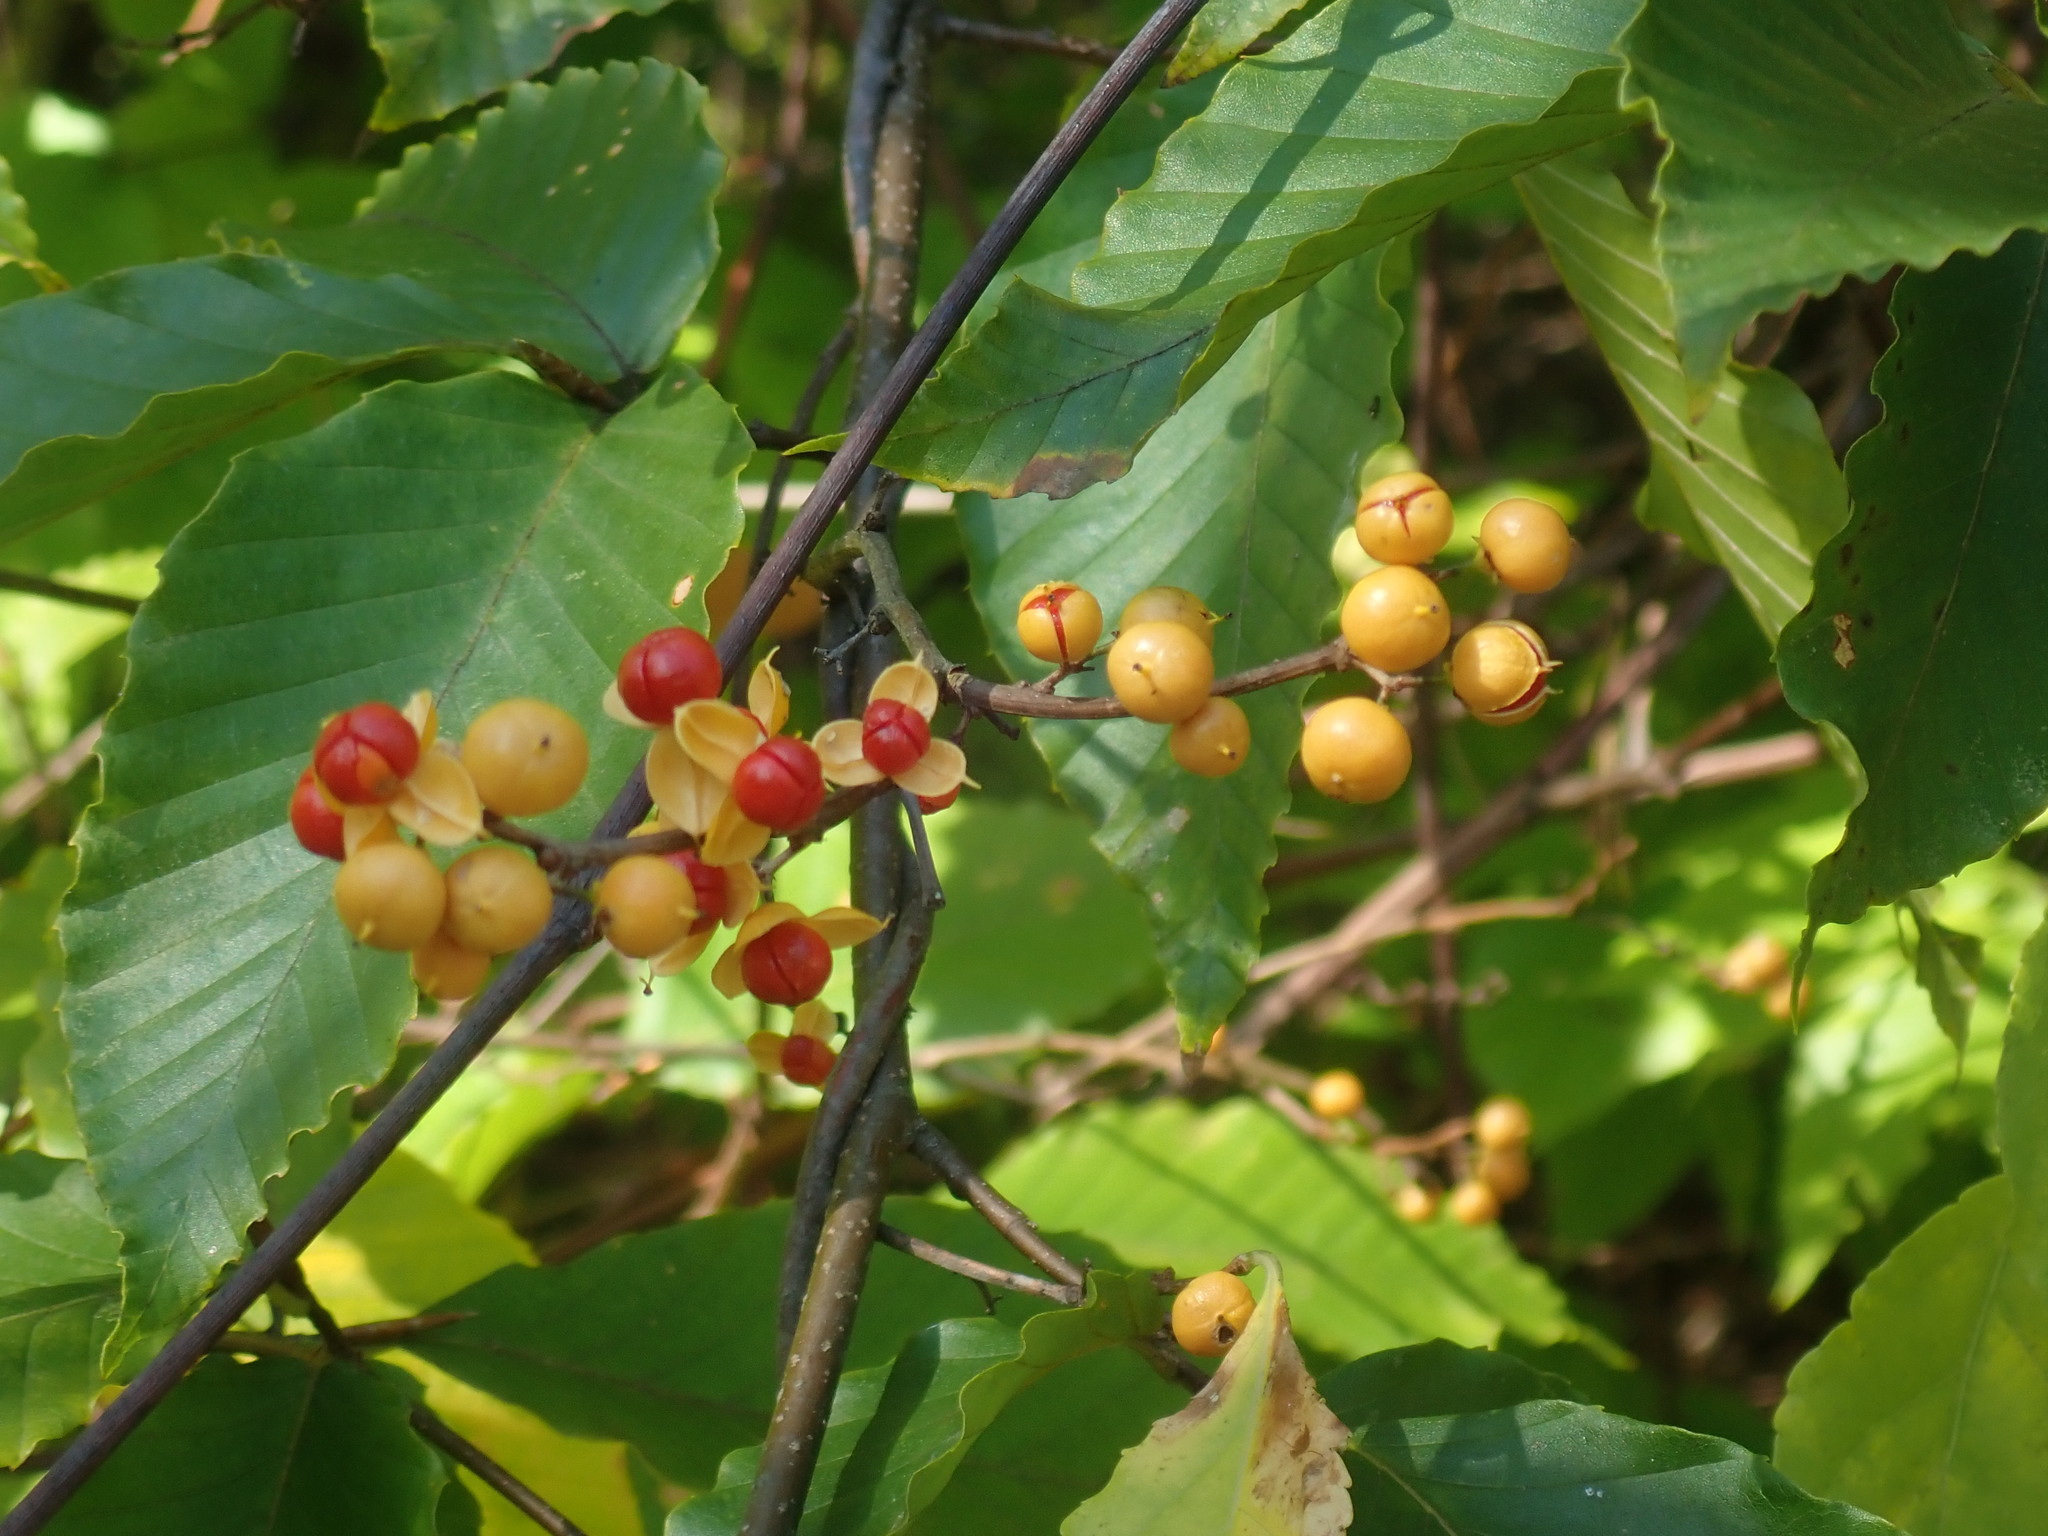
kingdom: Plantae
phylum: Tracheophyta
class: Magnoliopsida
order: Celastrales
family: Celastraceae
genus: Celastrus
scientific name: Celastrus orbiculatus
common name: Oriental bittersweet
